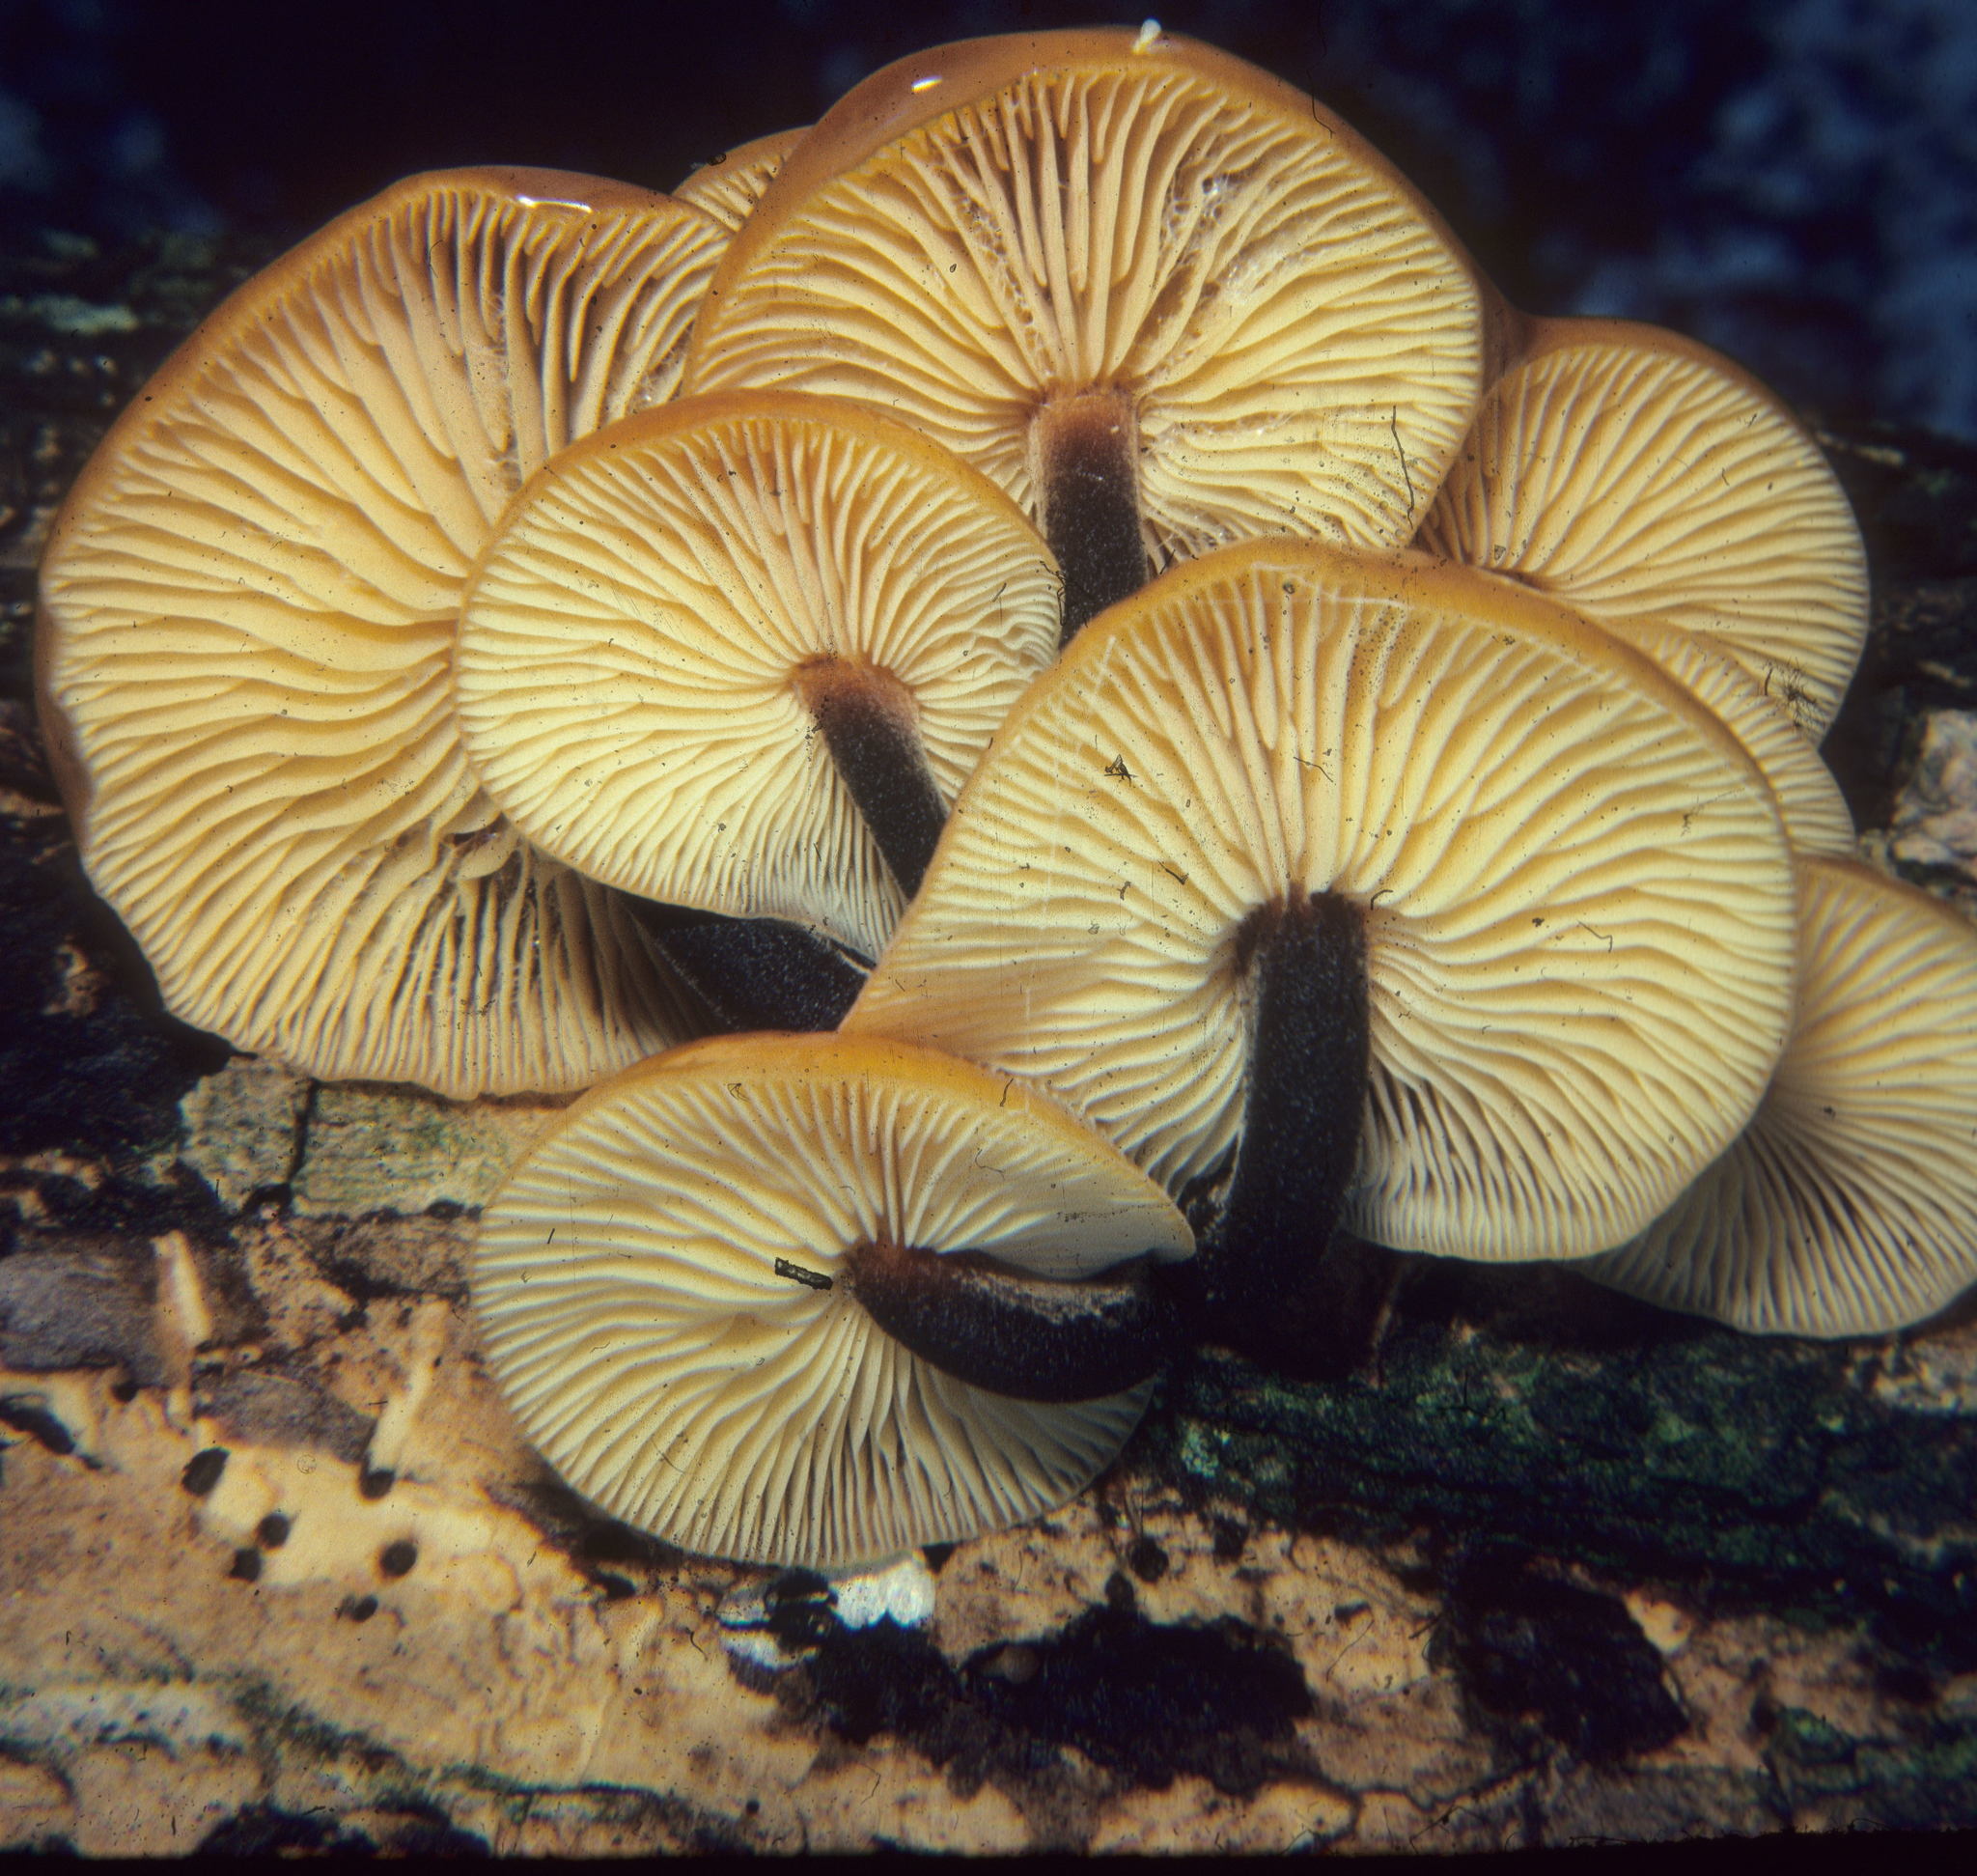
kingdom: Fungi
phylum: Basidiomycota
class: Agaricomycetes
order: Agaricales
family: Physalacriaceae
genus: Flammulina
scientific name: Flammulina velutipes
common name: Velvet shank
